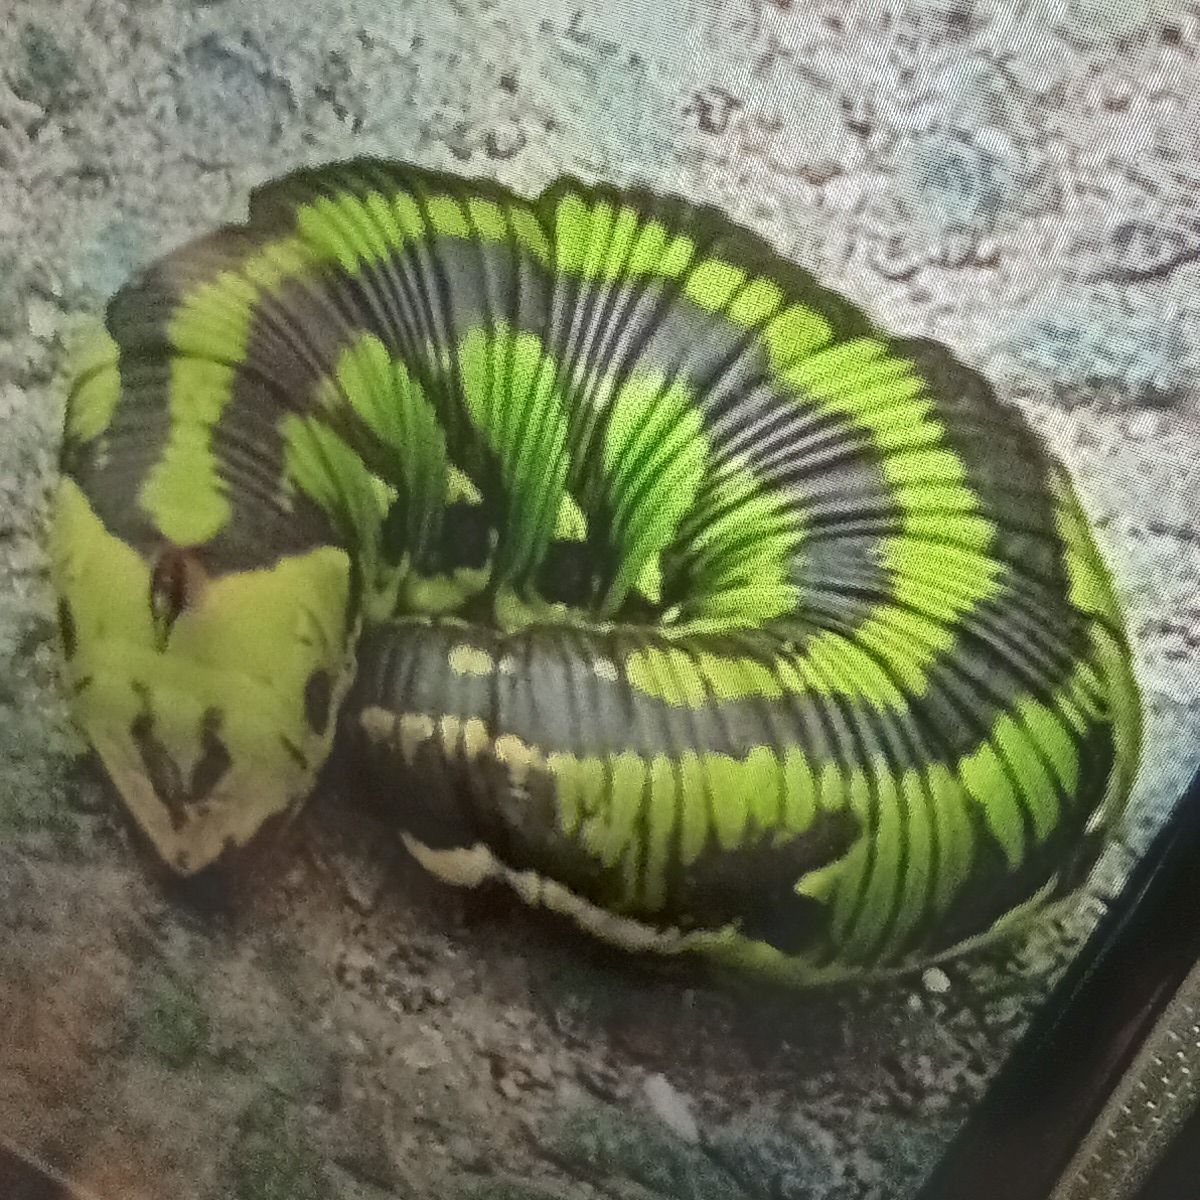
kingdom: Animalia
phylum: Arthropoda
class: Insecta
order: Lepidoptera
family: Sphingidae
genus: Agrius
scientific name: Agrius convolvuli
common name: Convolvulus hawkmoth
